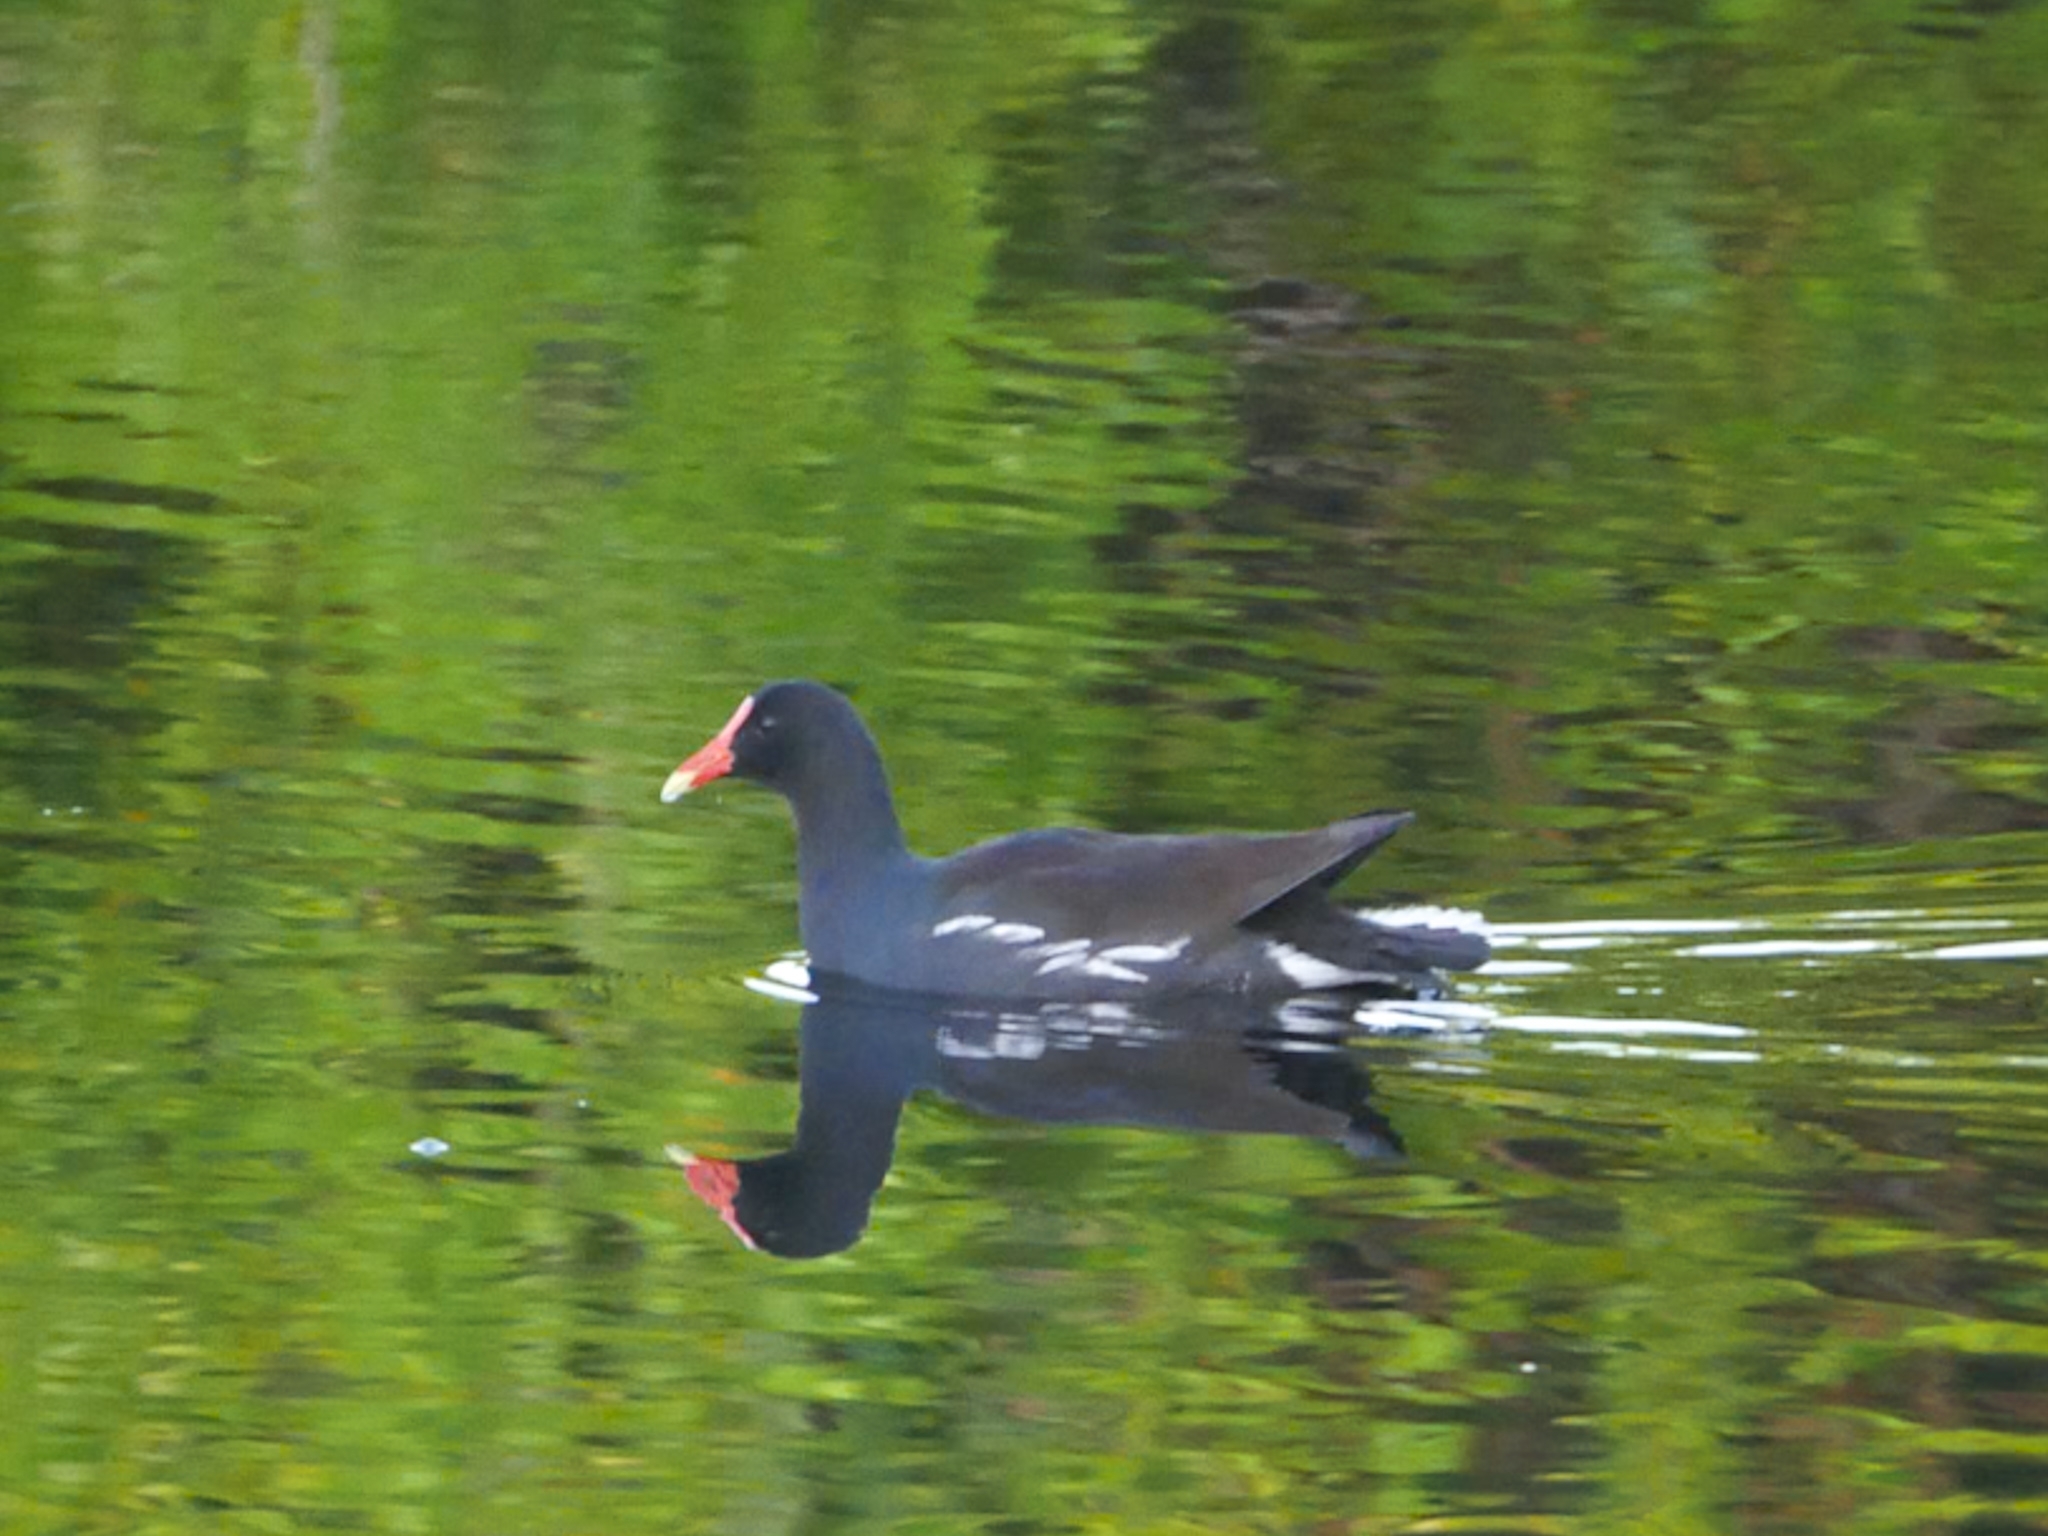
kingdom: Animalia
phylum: Chordata
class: Aves
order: Gruiformes
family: Rallidae
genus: Gallinula
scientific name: Gallinula chloropus
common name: Common moorhen
